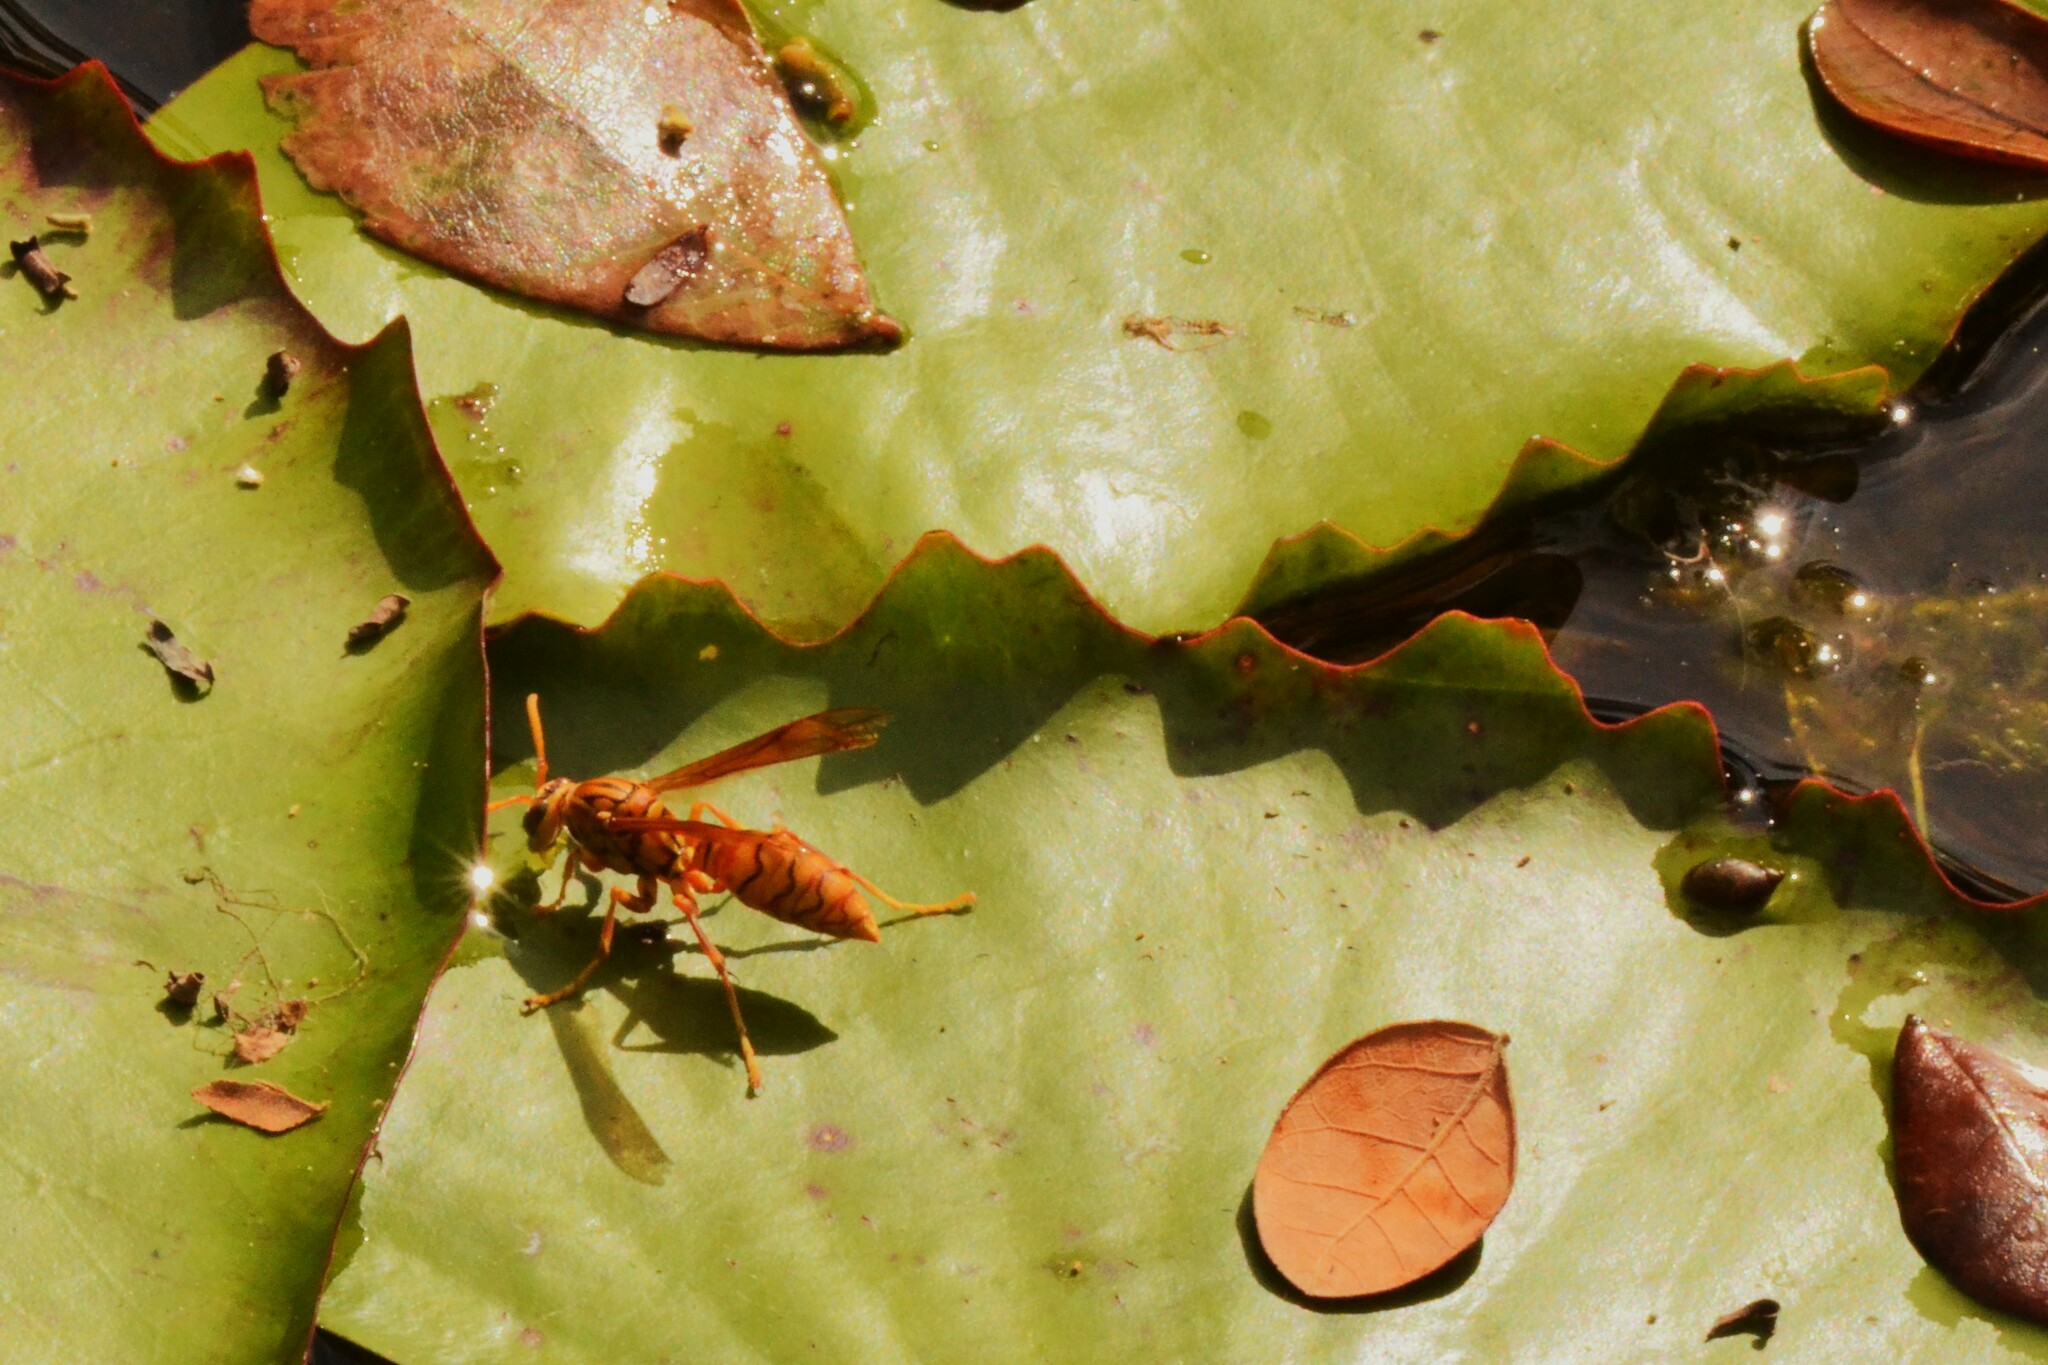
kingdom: Animalia
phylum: Arthropoda
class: Insecta
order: Hymenoptera
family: Eumenidae
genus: Polistes
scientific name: Polistes olivaceus
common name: Paper wasp
